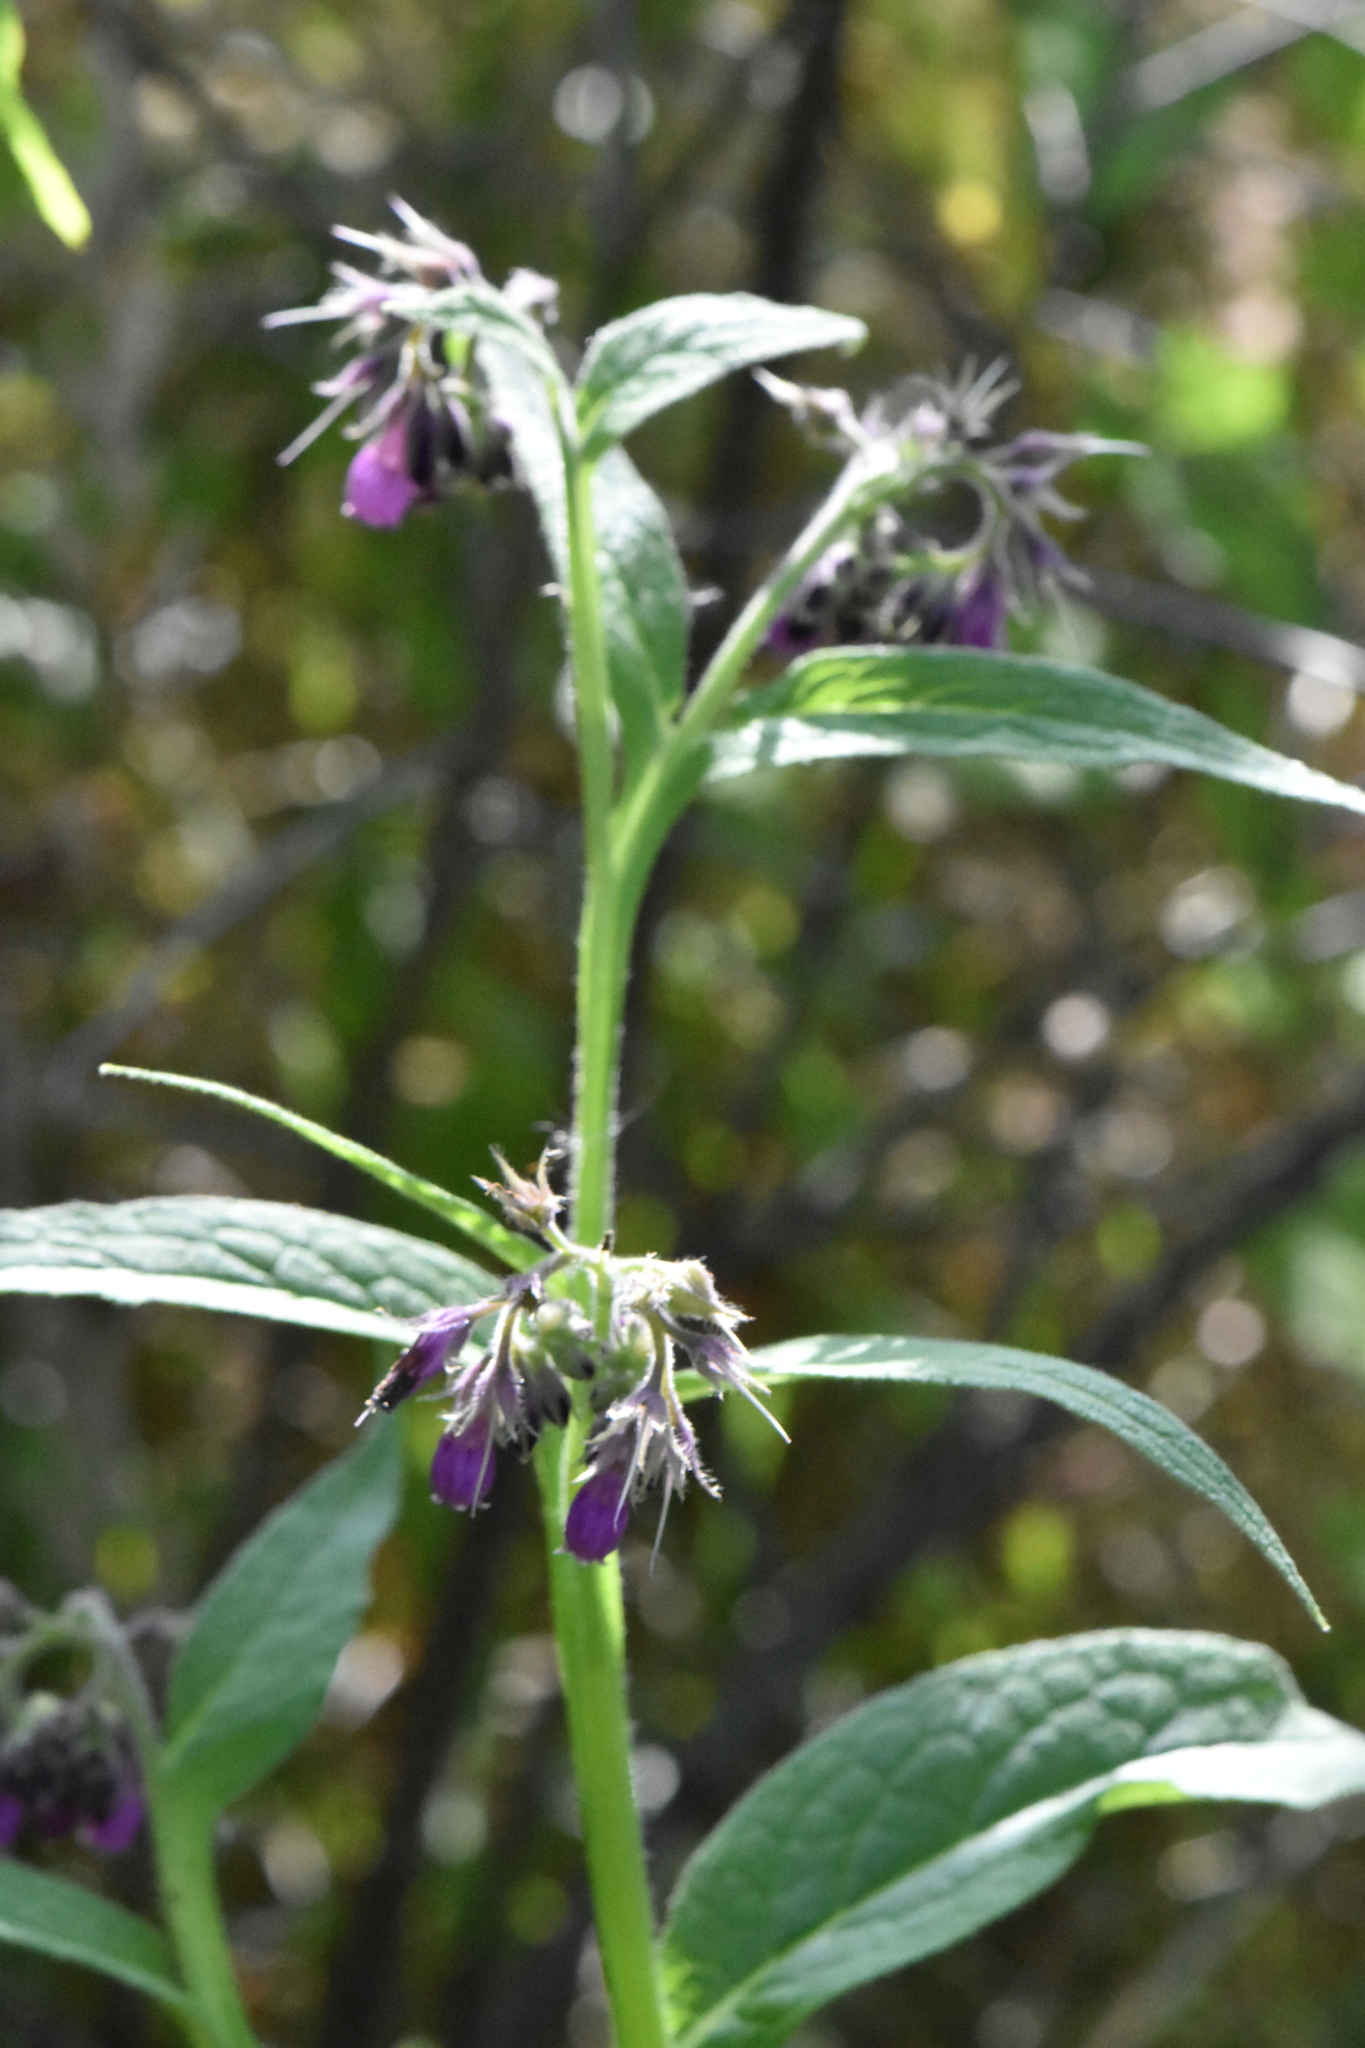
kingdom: Plantae
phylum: Tracheophyta
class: Magnoliopsida
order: Boraginales
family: Boraginaceae
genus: Symphytum
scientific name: Symphytum officinale
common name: Common comfrey
